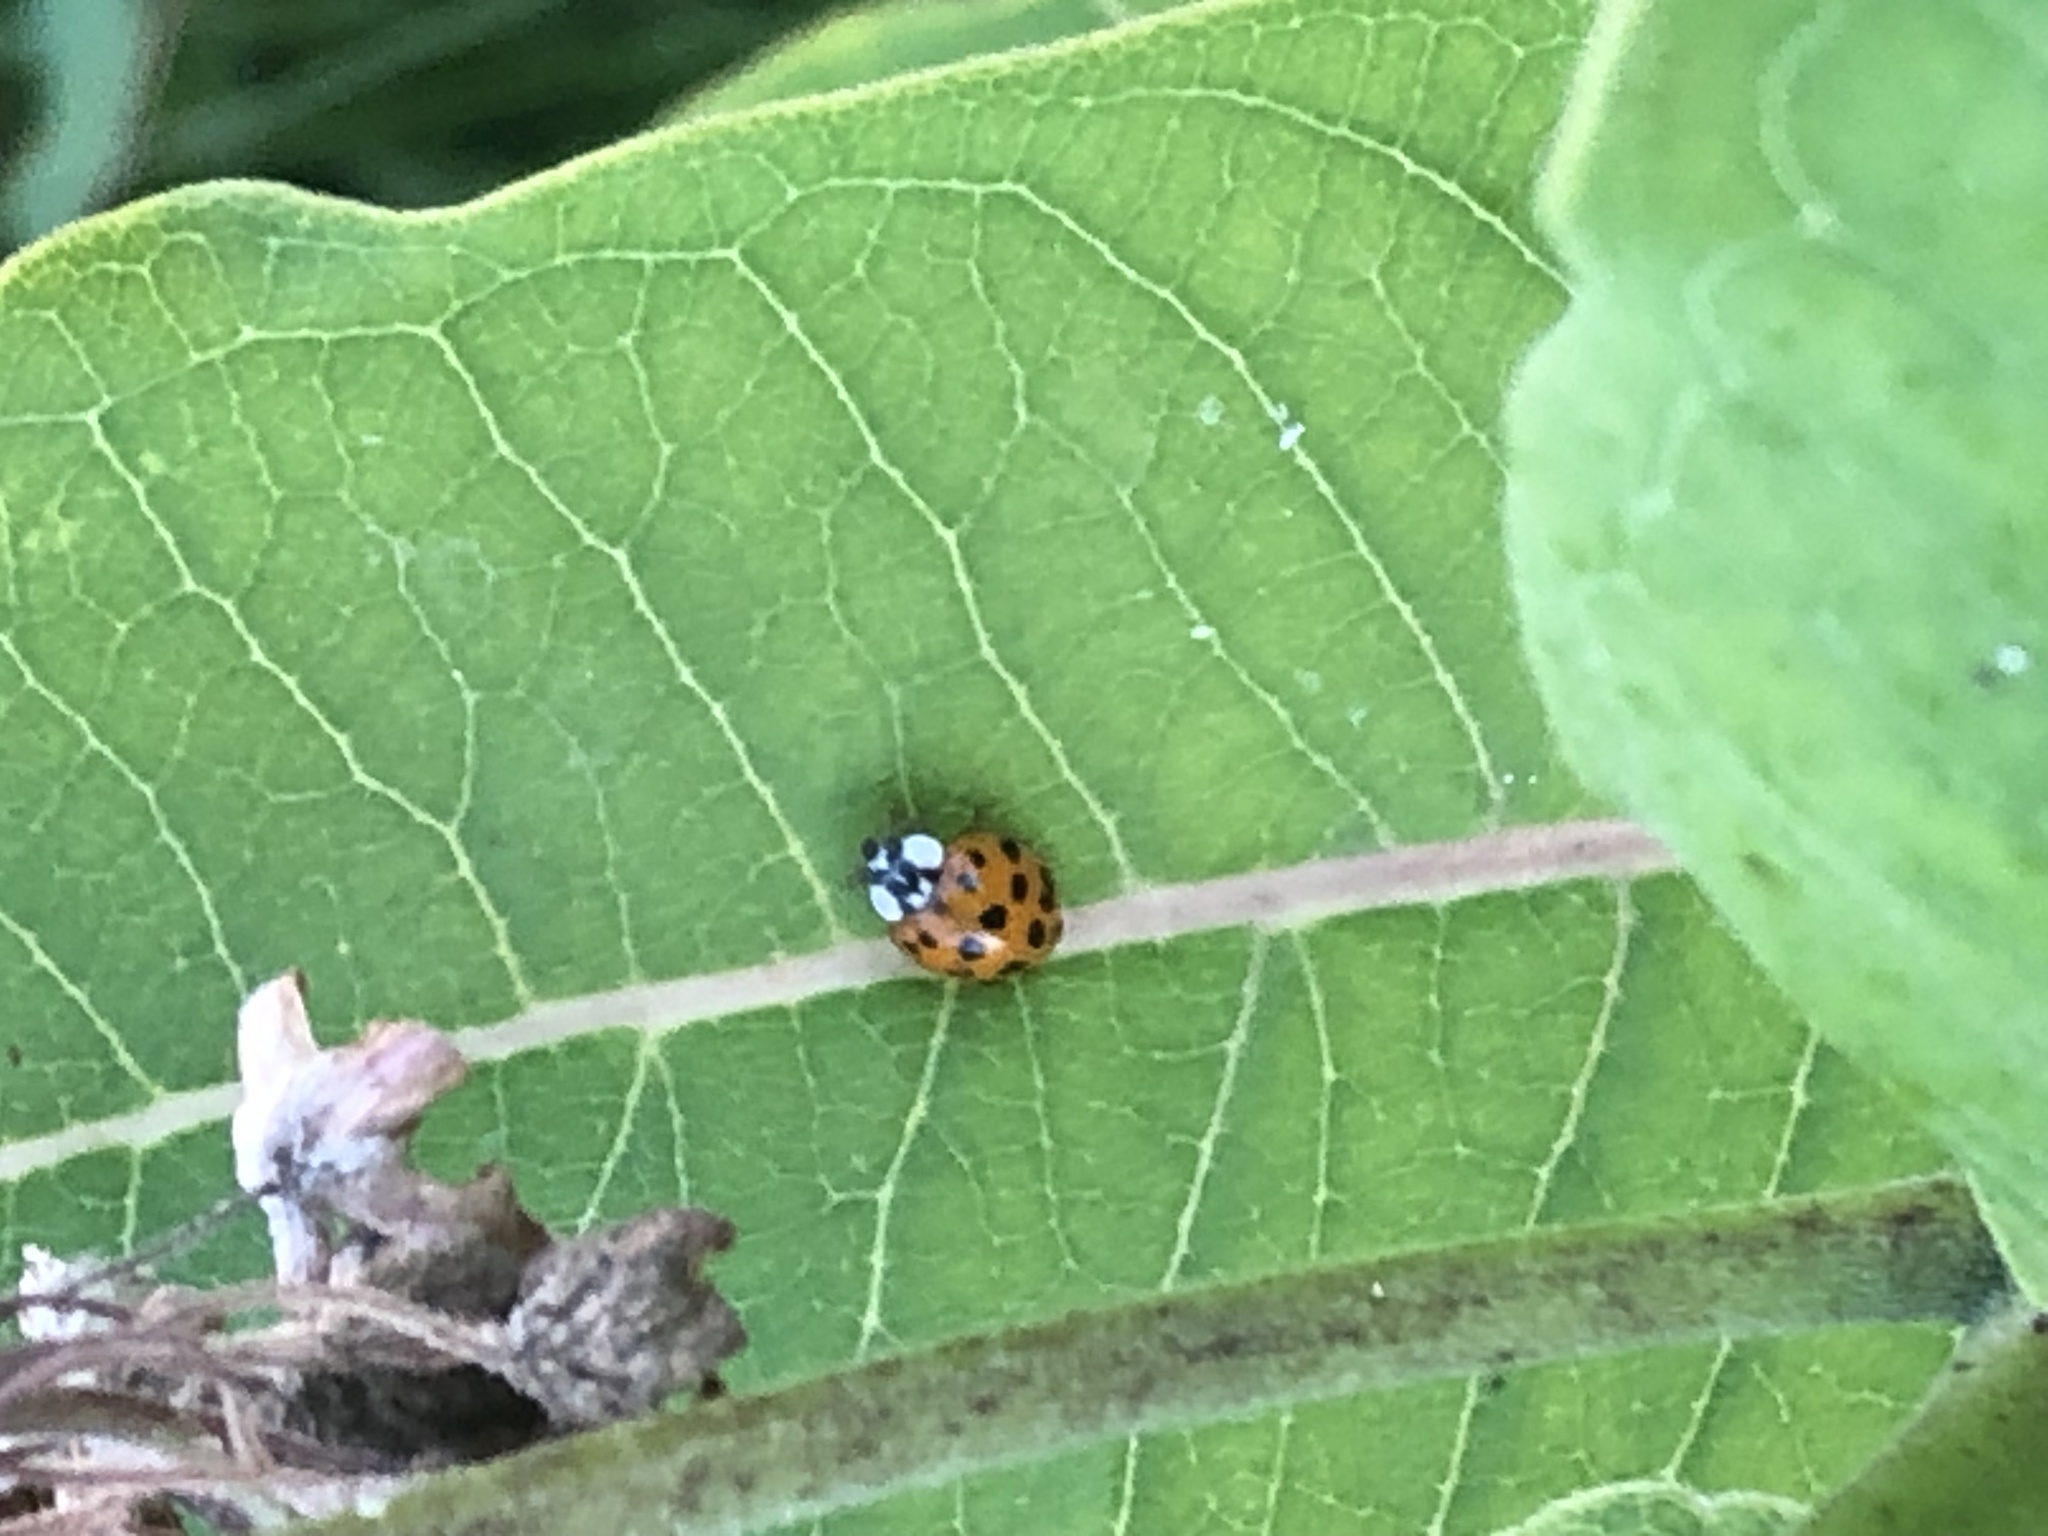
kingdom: Animalia
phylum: Arthropoda
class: Insecta
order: Coleoptera
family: Coccinellidae
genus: Harmonia
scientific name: Harmonia axyridis
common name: Harlequin ladybird
